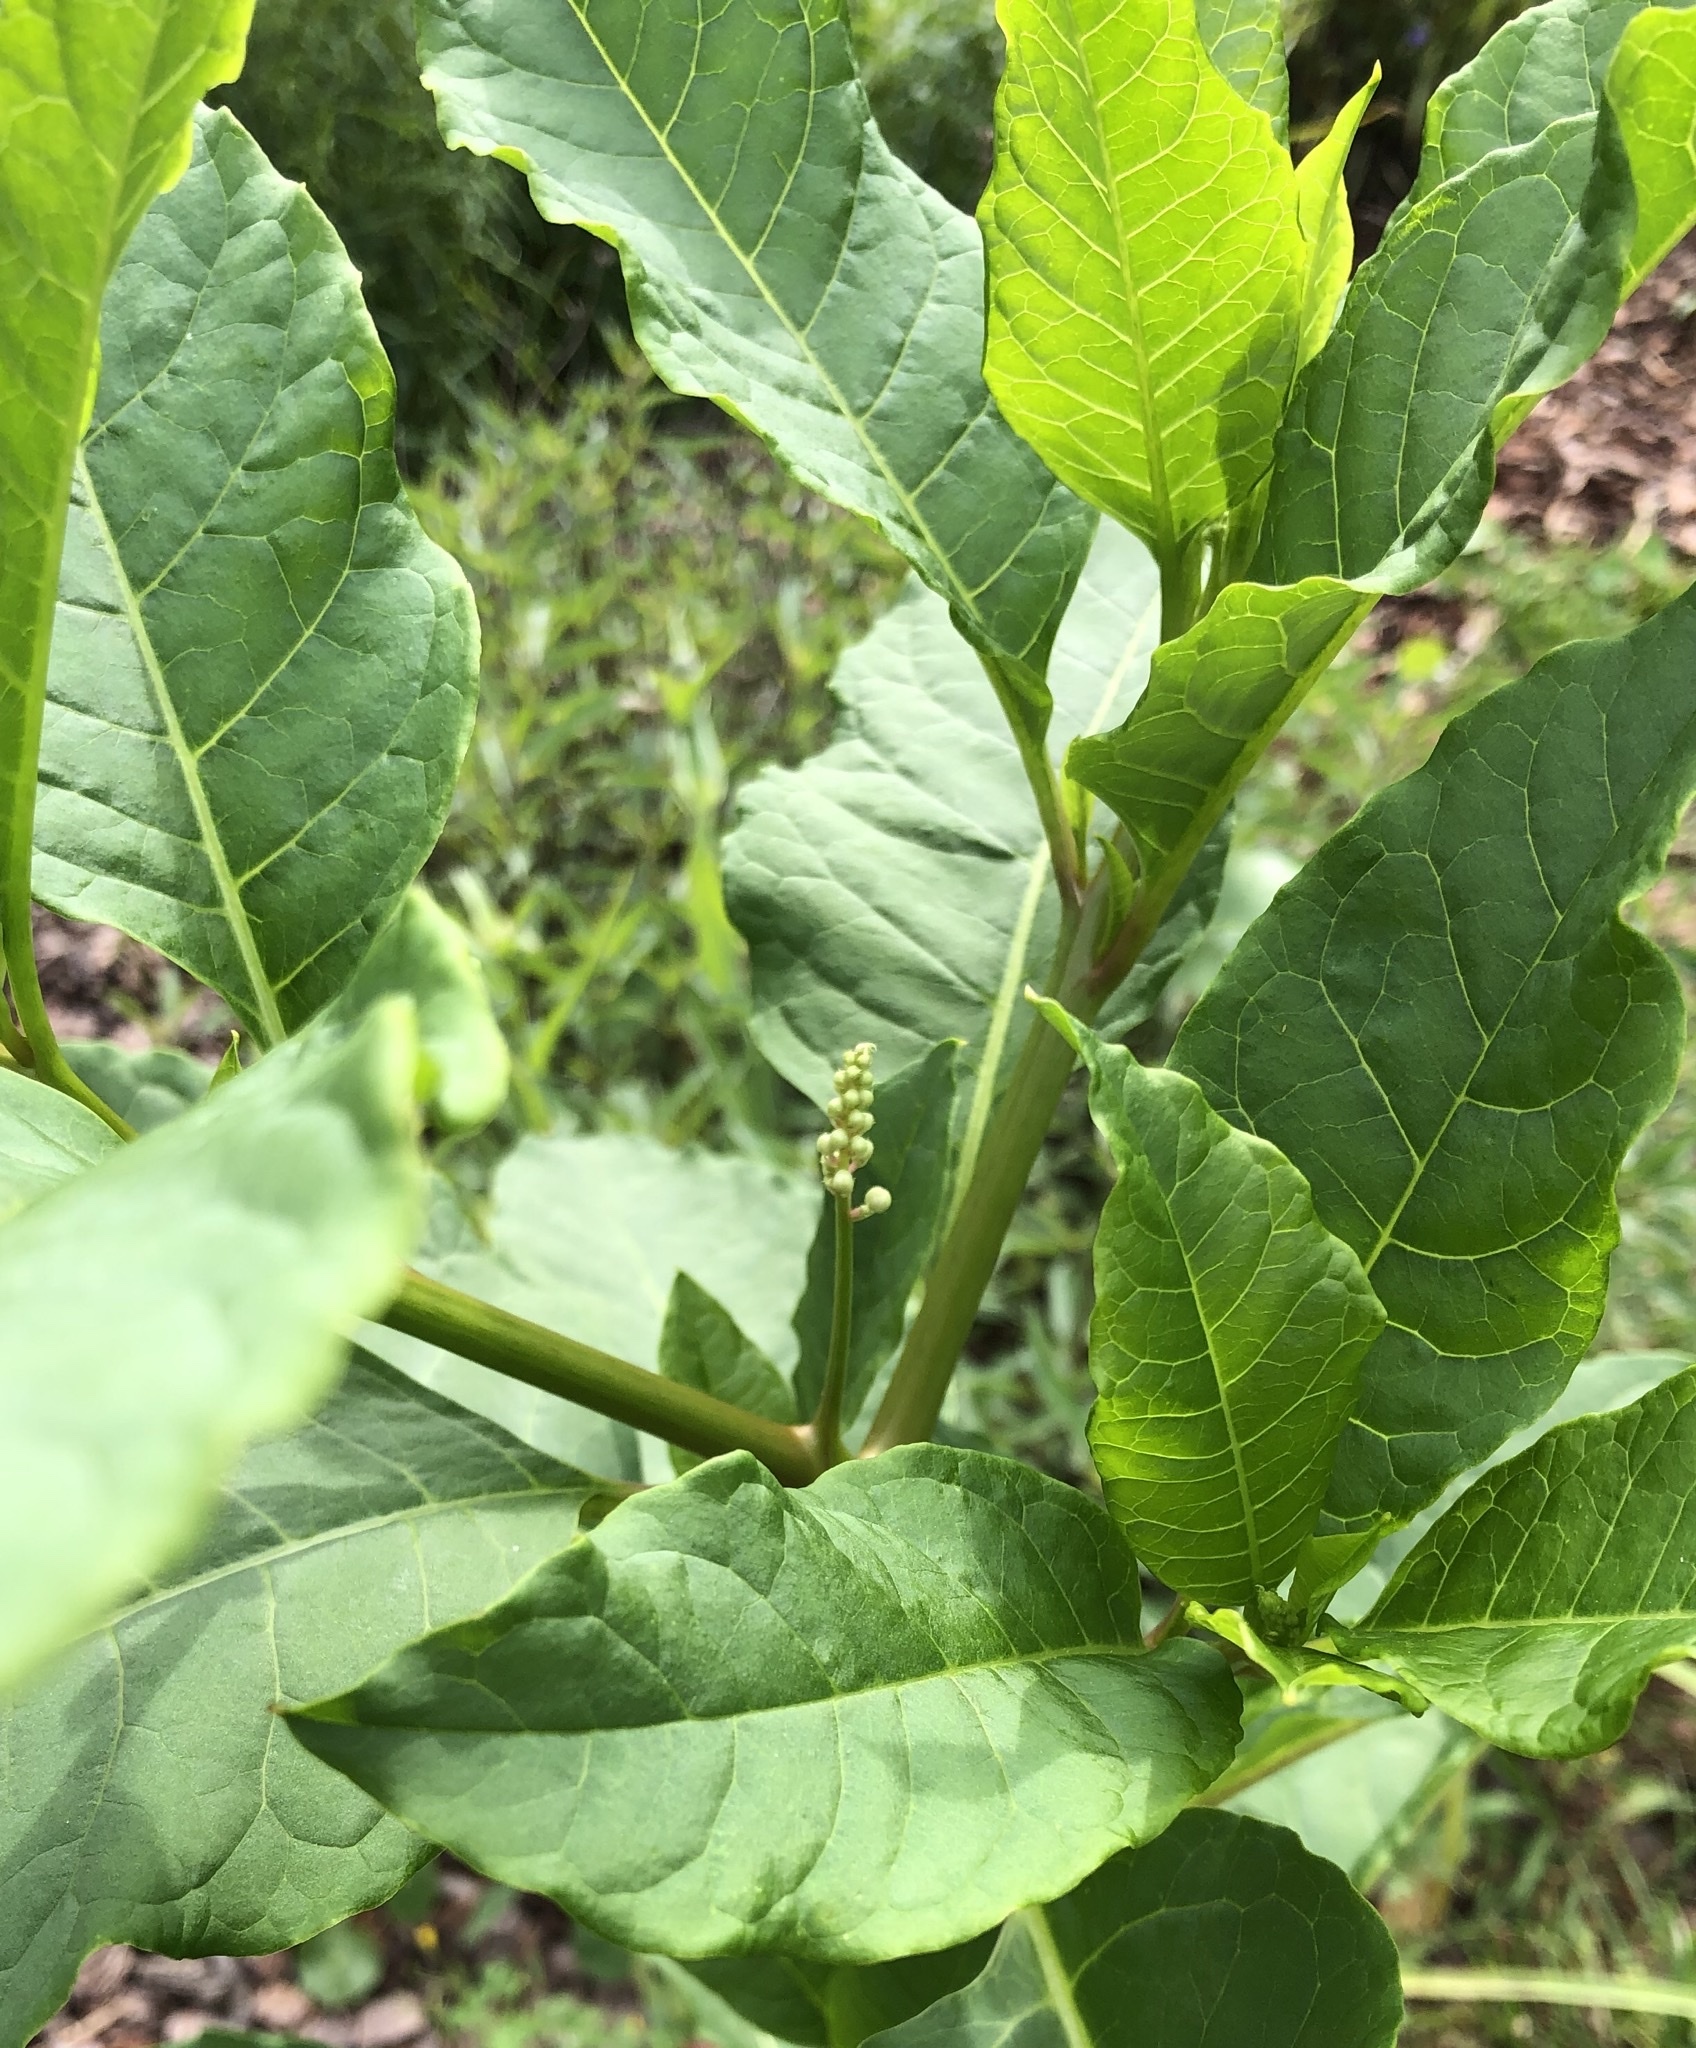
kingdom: Plantae
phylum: Tracheophyta
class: Magnoliopsida
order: Caryophyllales
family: Phytolaccaceae
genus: Phytolacca
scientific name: Phytolacca americana
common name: American pokeweed
